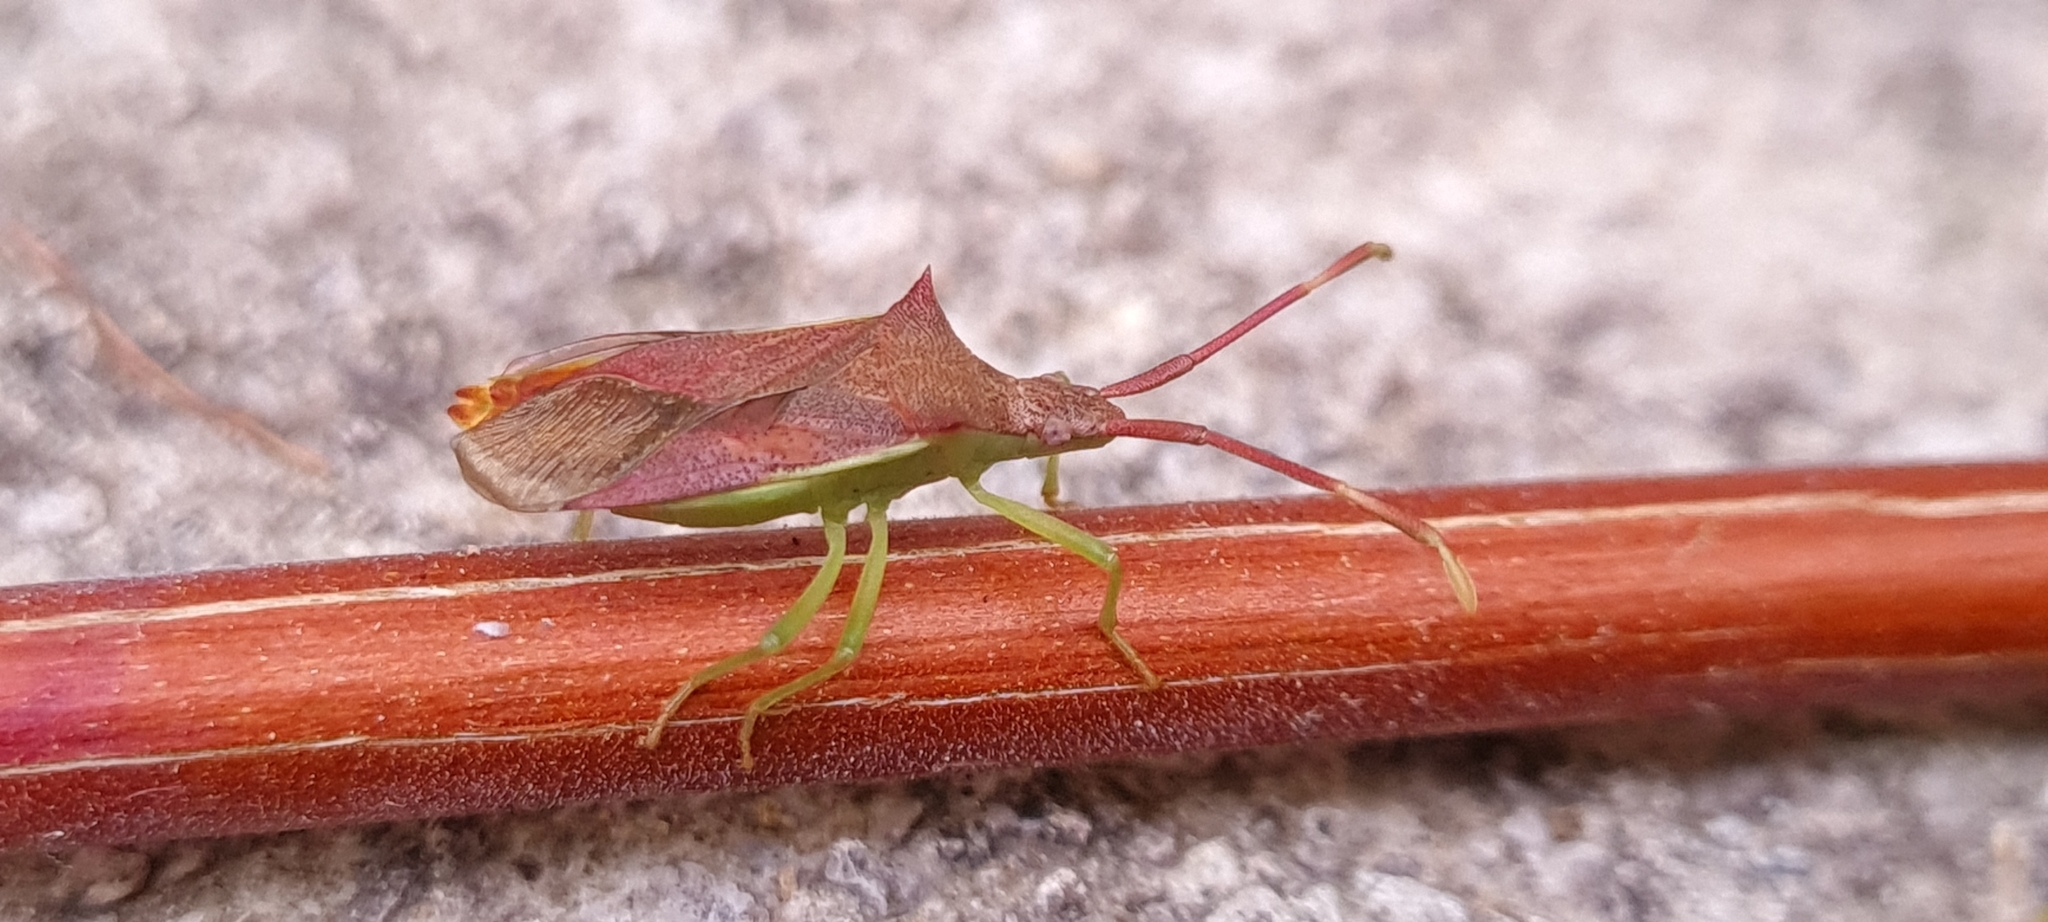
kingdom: Animalia
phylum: Arthropoda
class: Insecta
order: Hemiptera
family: Coreidae
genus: Gonocerus
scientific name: Gonocerus insidiator
